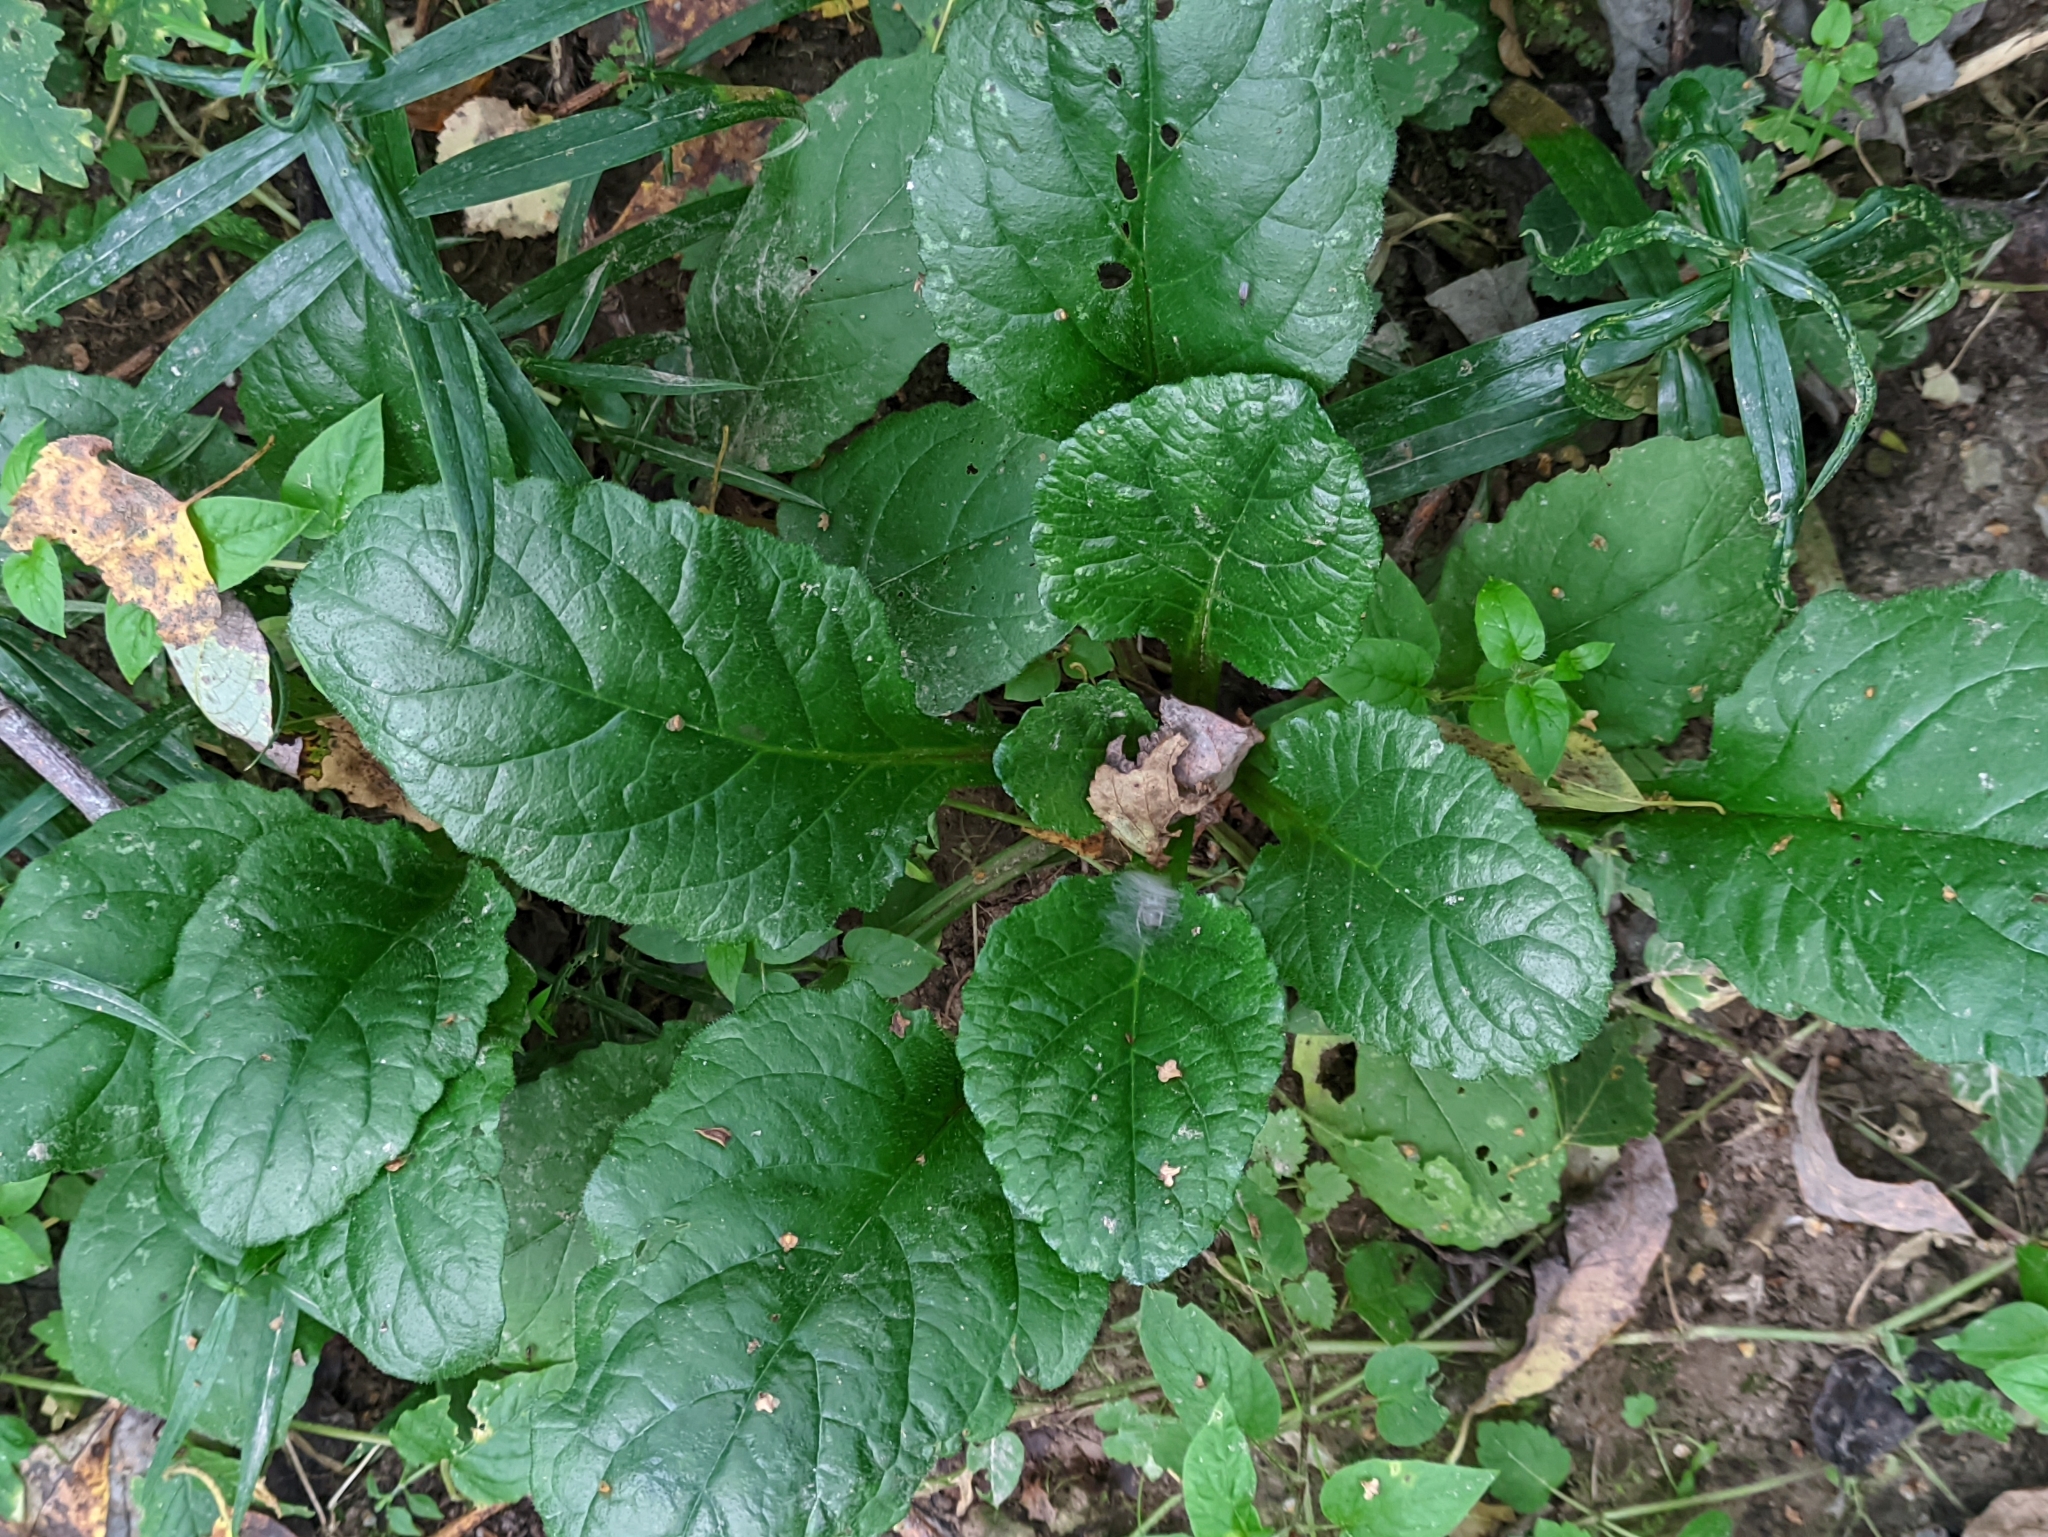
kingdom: Plantae
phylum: Tracheophyta
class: Magnoliopsida
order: Lamiales
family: Lamiaceae
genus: Ajuga
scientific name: Ajuga reptans
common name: Bugle
